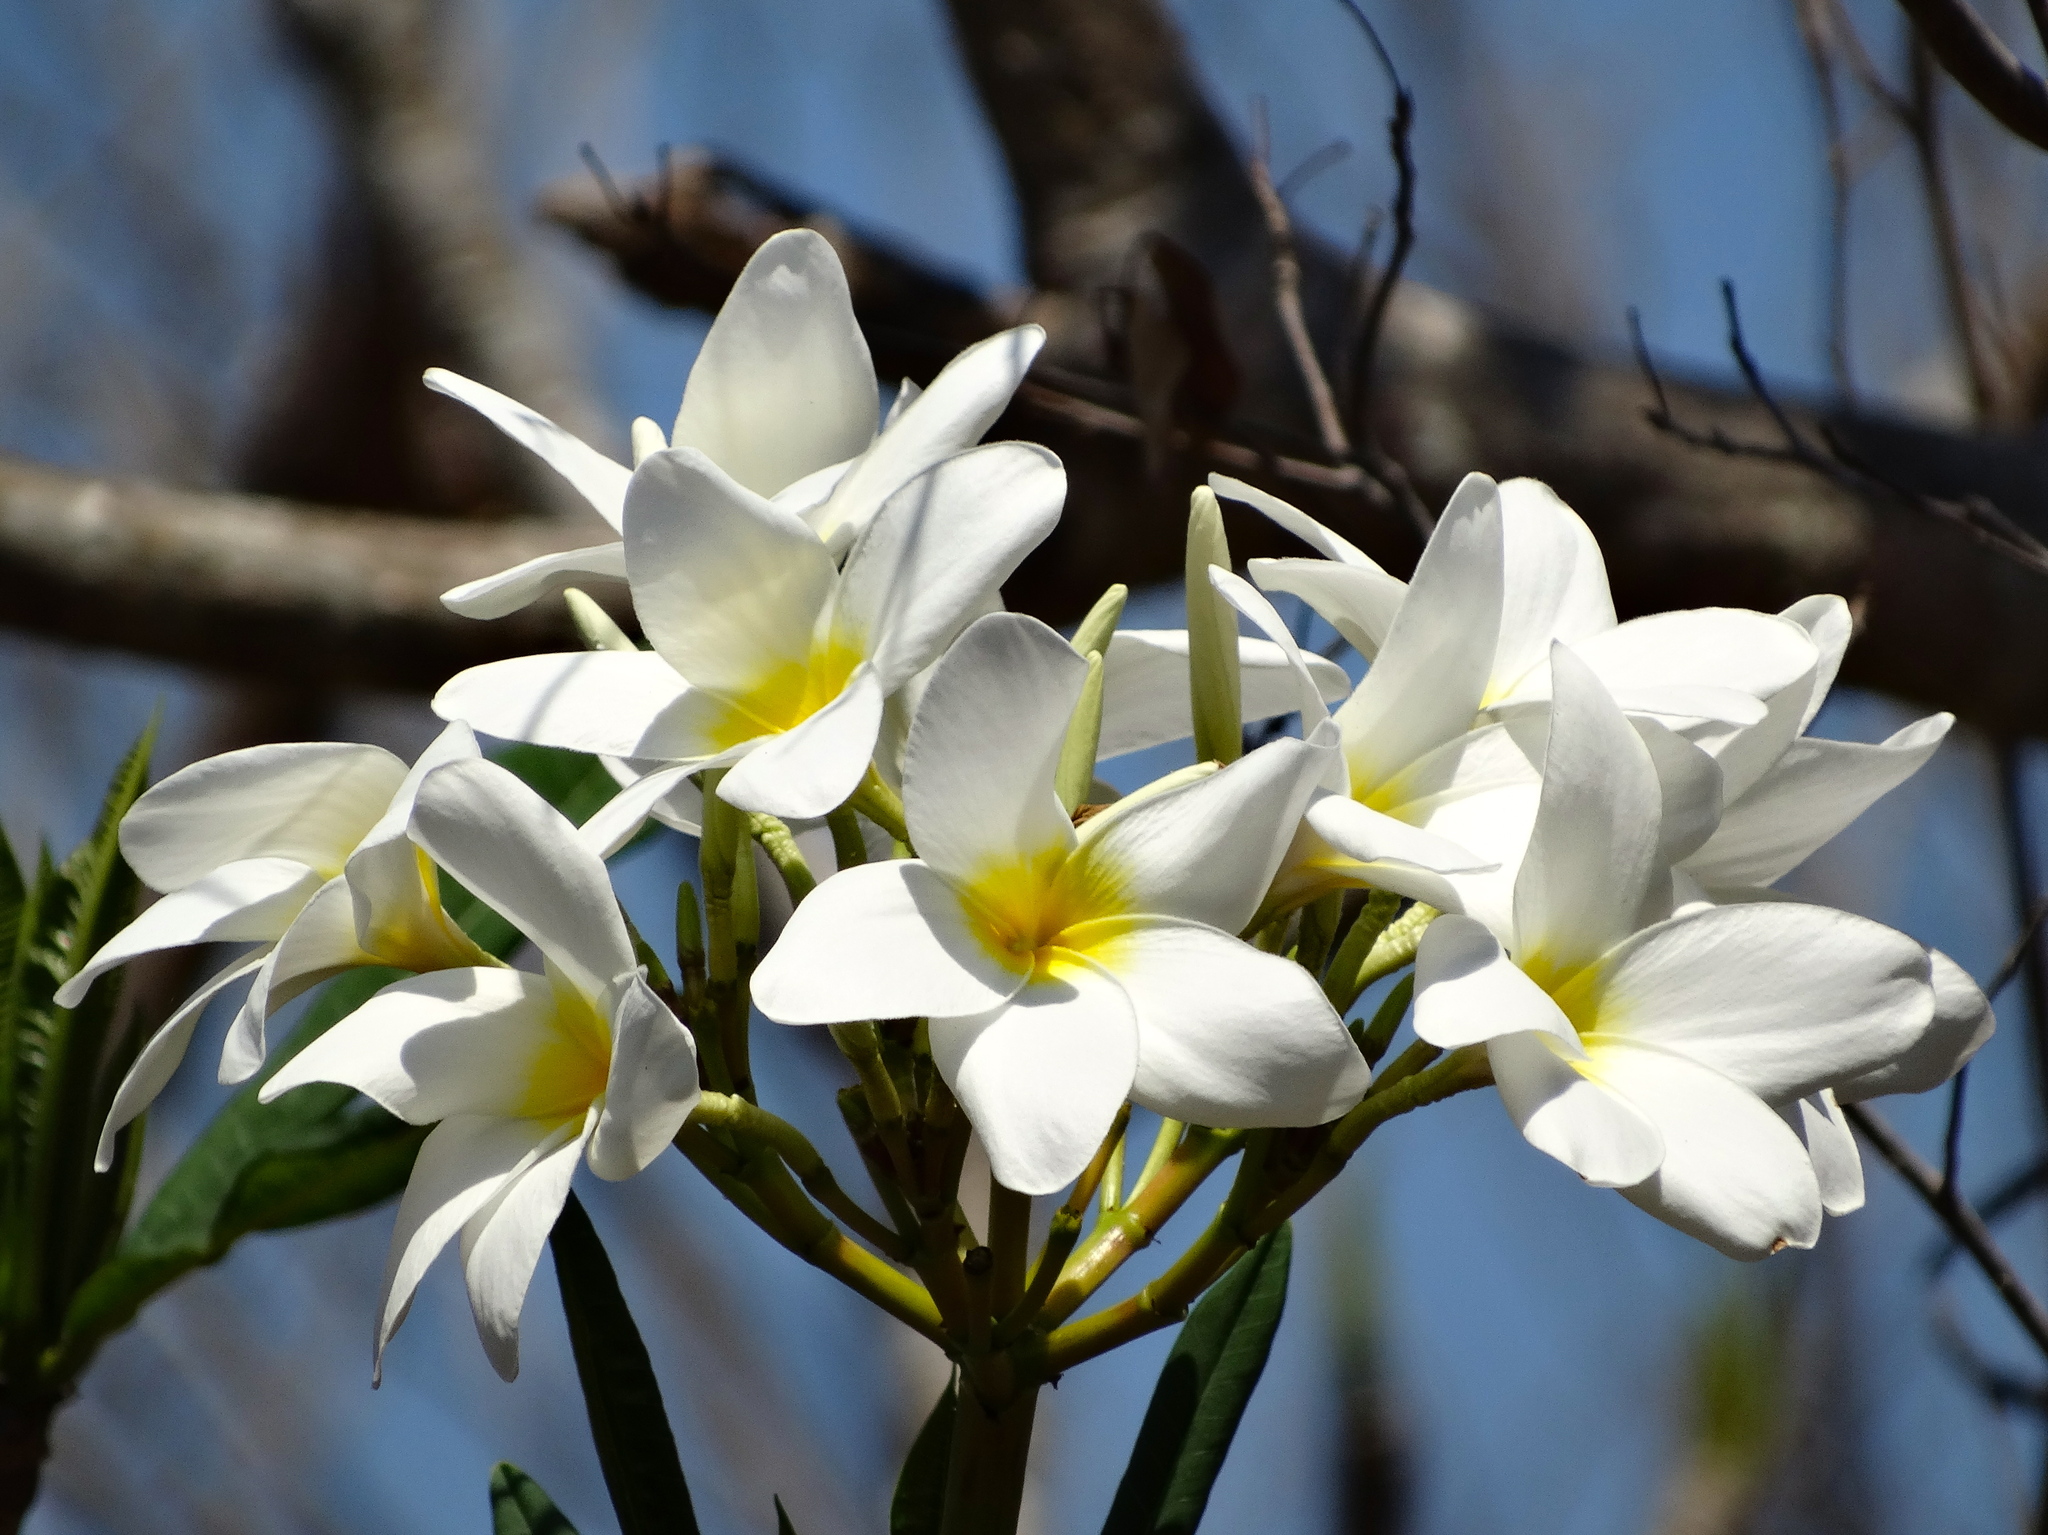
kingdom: Plantae
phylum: Tracheophyta
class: Magnoliopsida
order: Gentianales
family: Apocynaceae
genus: Plumeria
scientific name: Plumeria rubra
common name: Pagoda-tree
